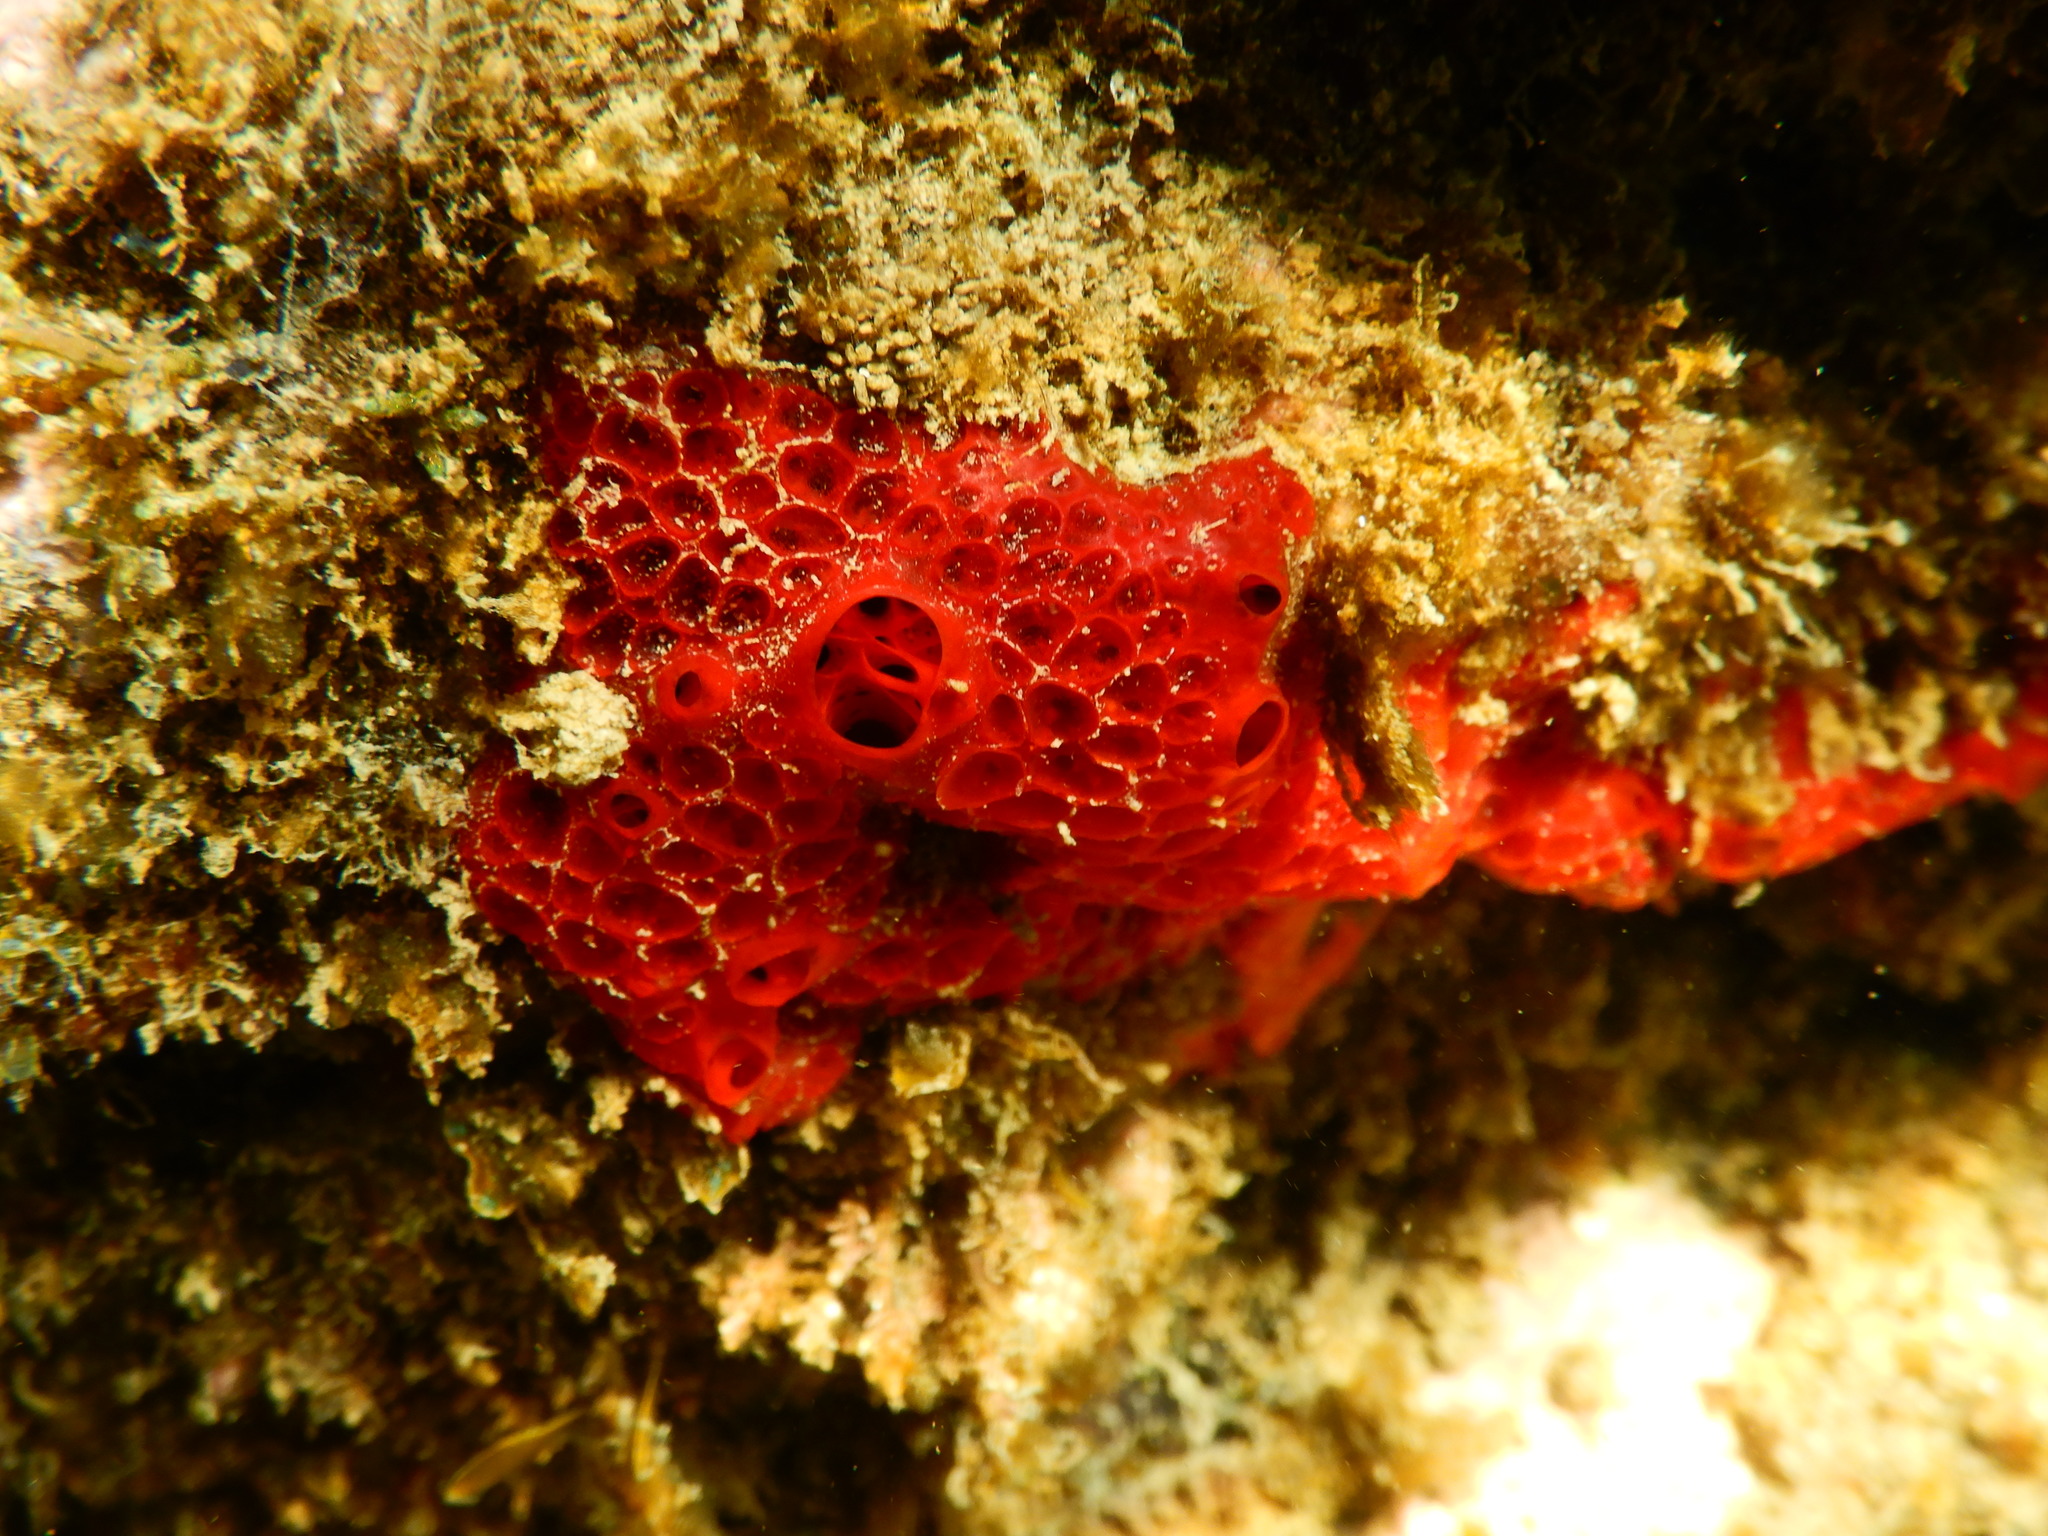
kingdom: Animalia
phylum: Porifera
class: Demospongiae
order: Poecilosclerida
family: Hymedesmiidae
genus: Hamigera
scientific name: Hamigera hamigera
